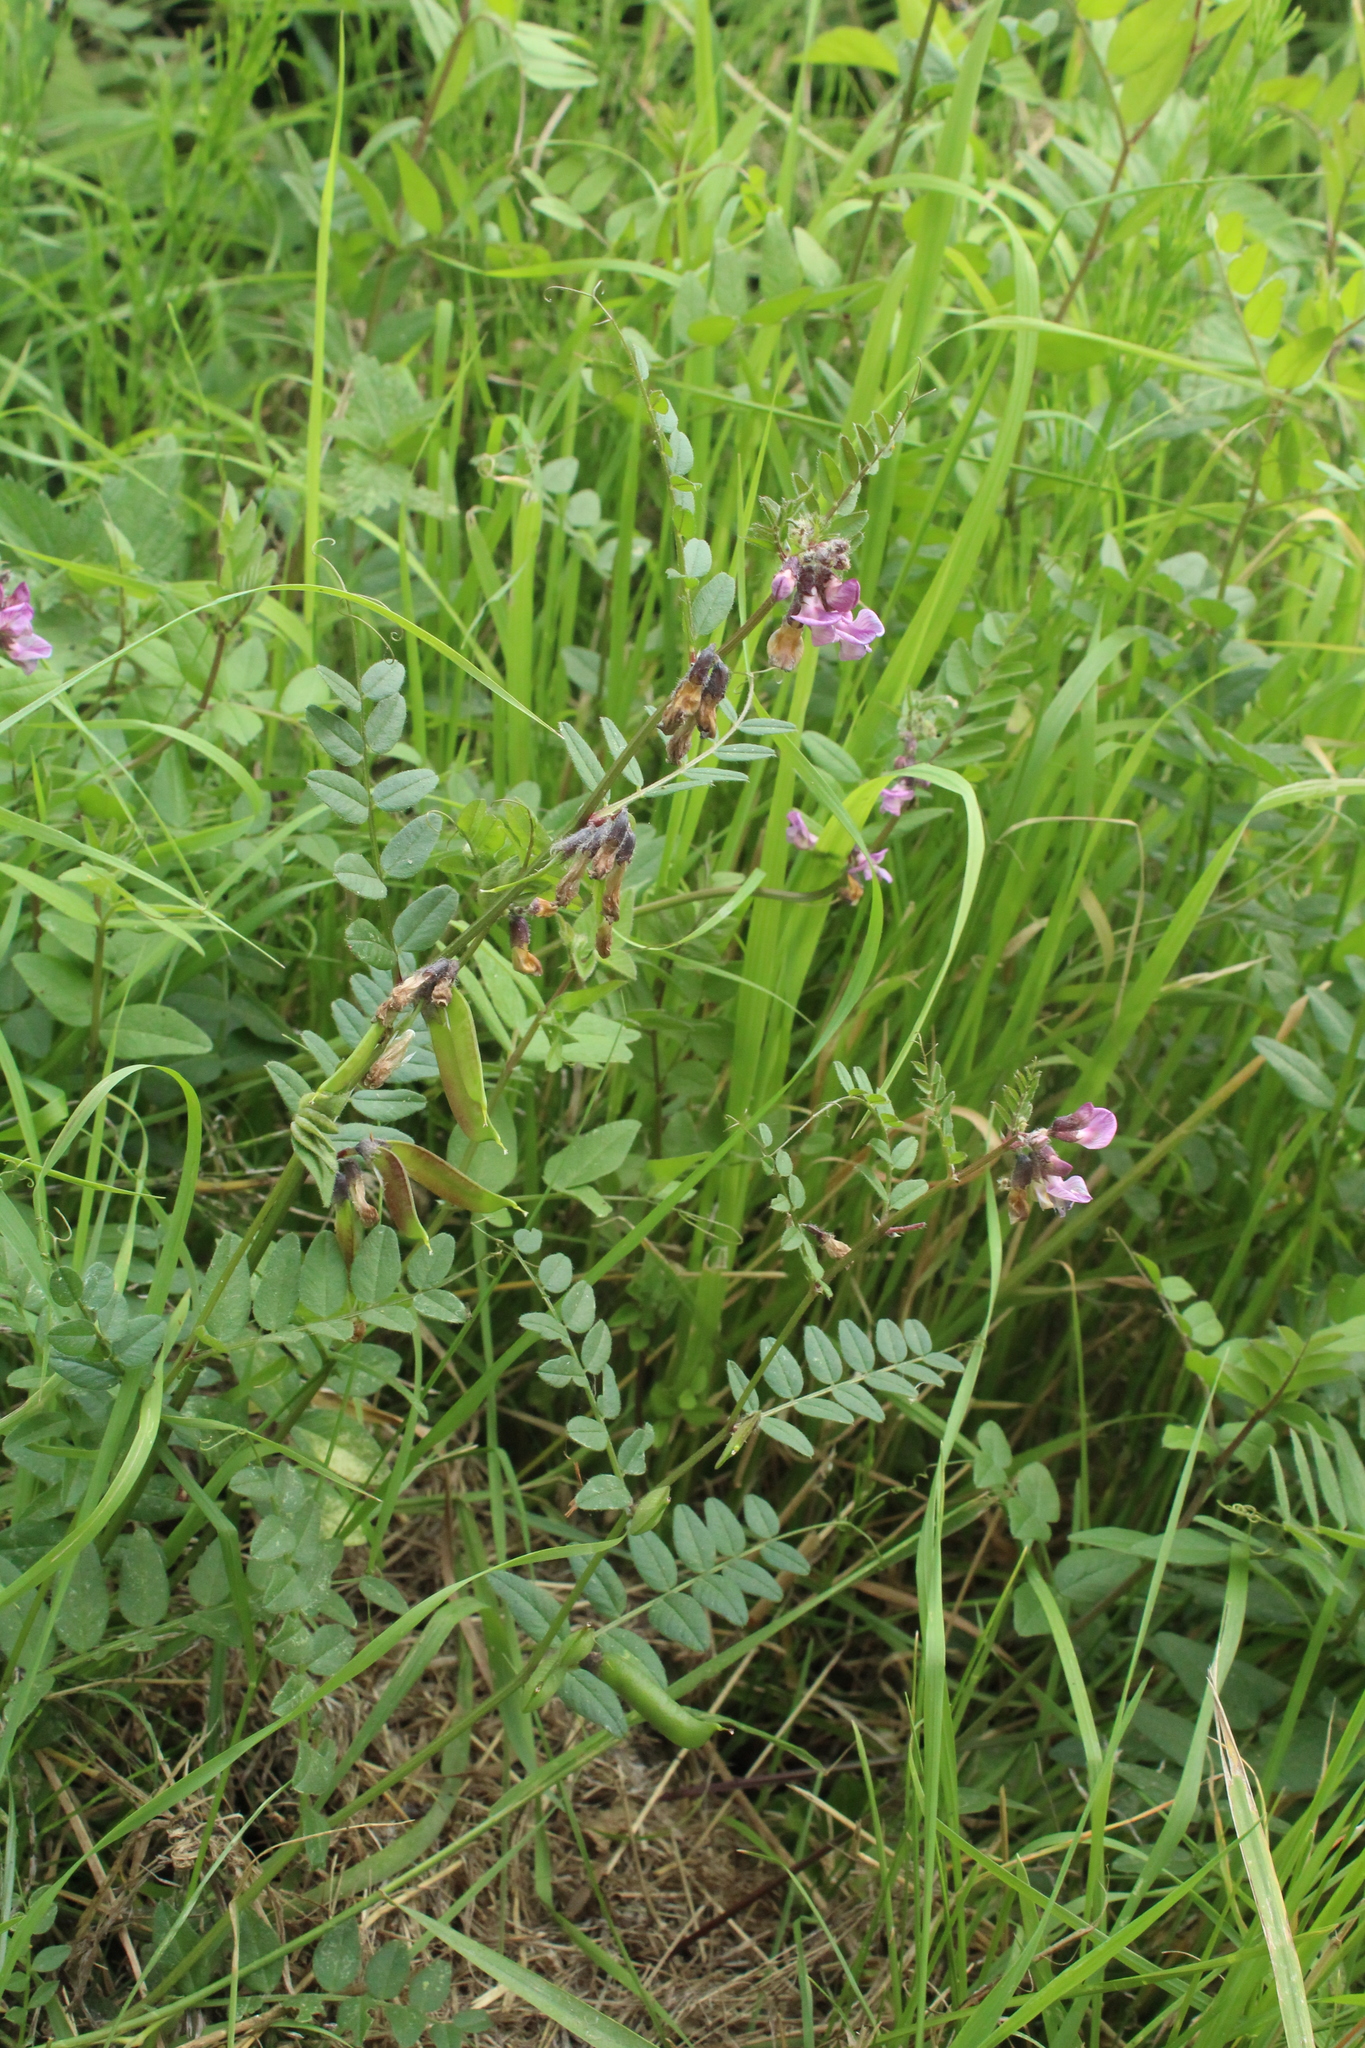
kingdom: Plantae
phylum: Tracheophyta
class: Magnoliopsida
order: Fabales
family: Fabaceae
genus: Vicia
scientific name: Vicia sepium
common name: Bush vetch
